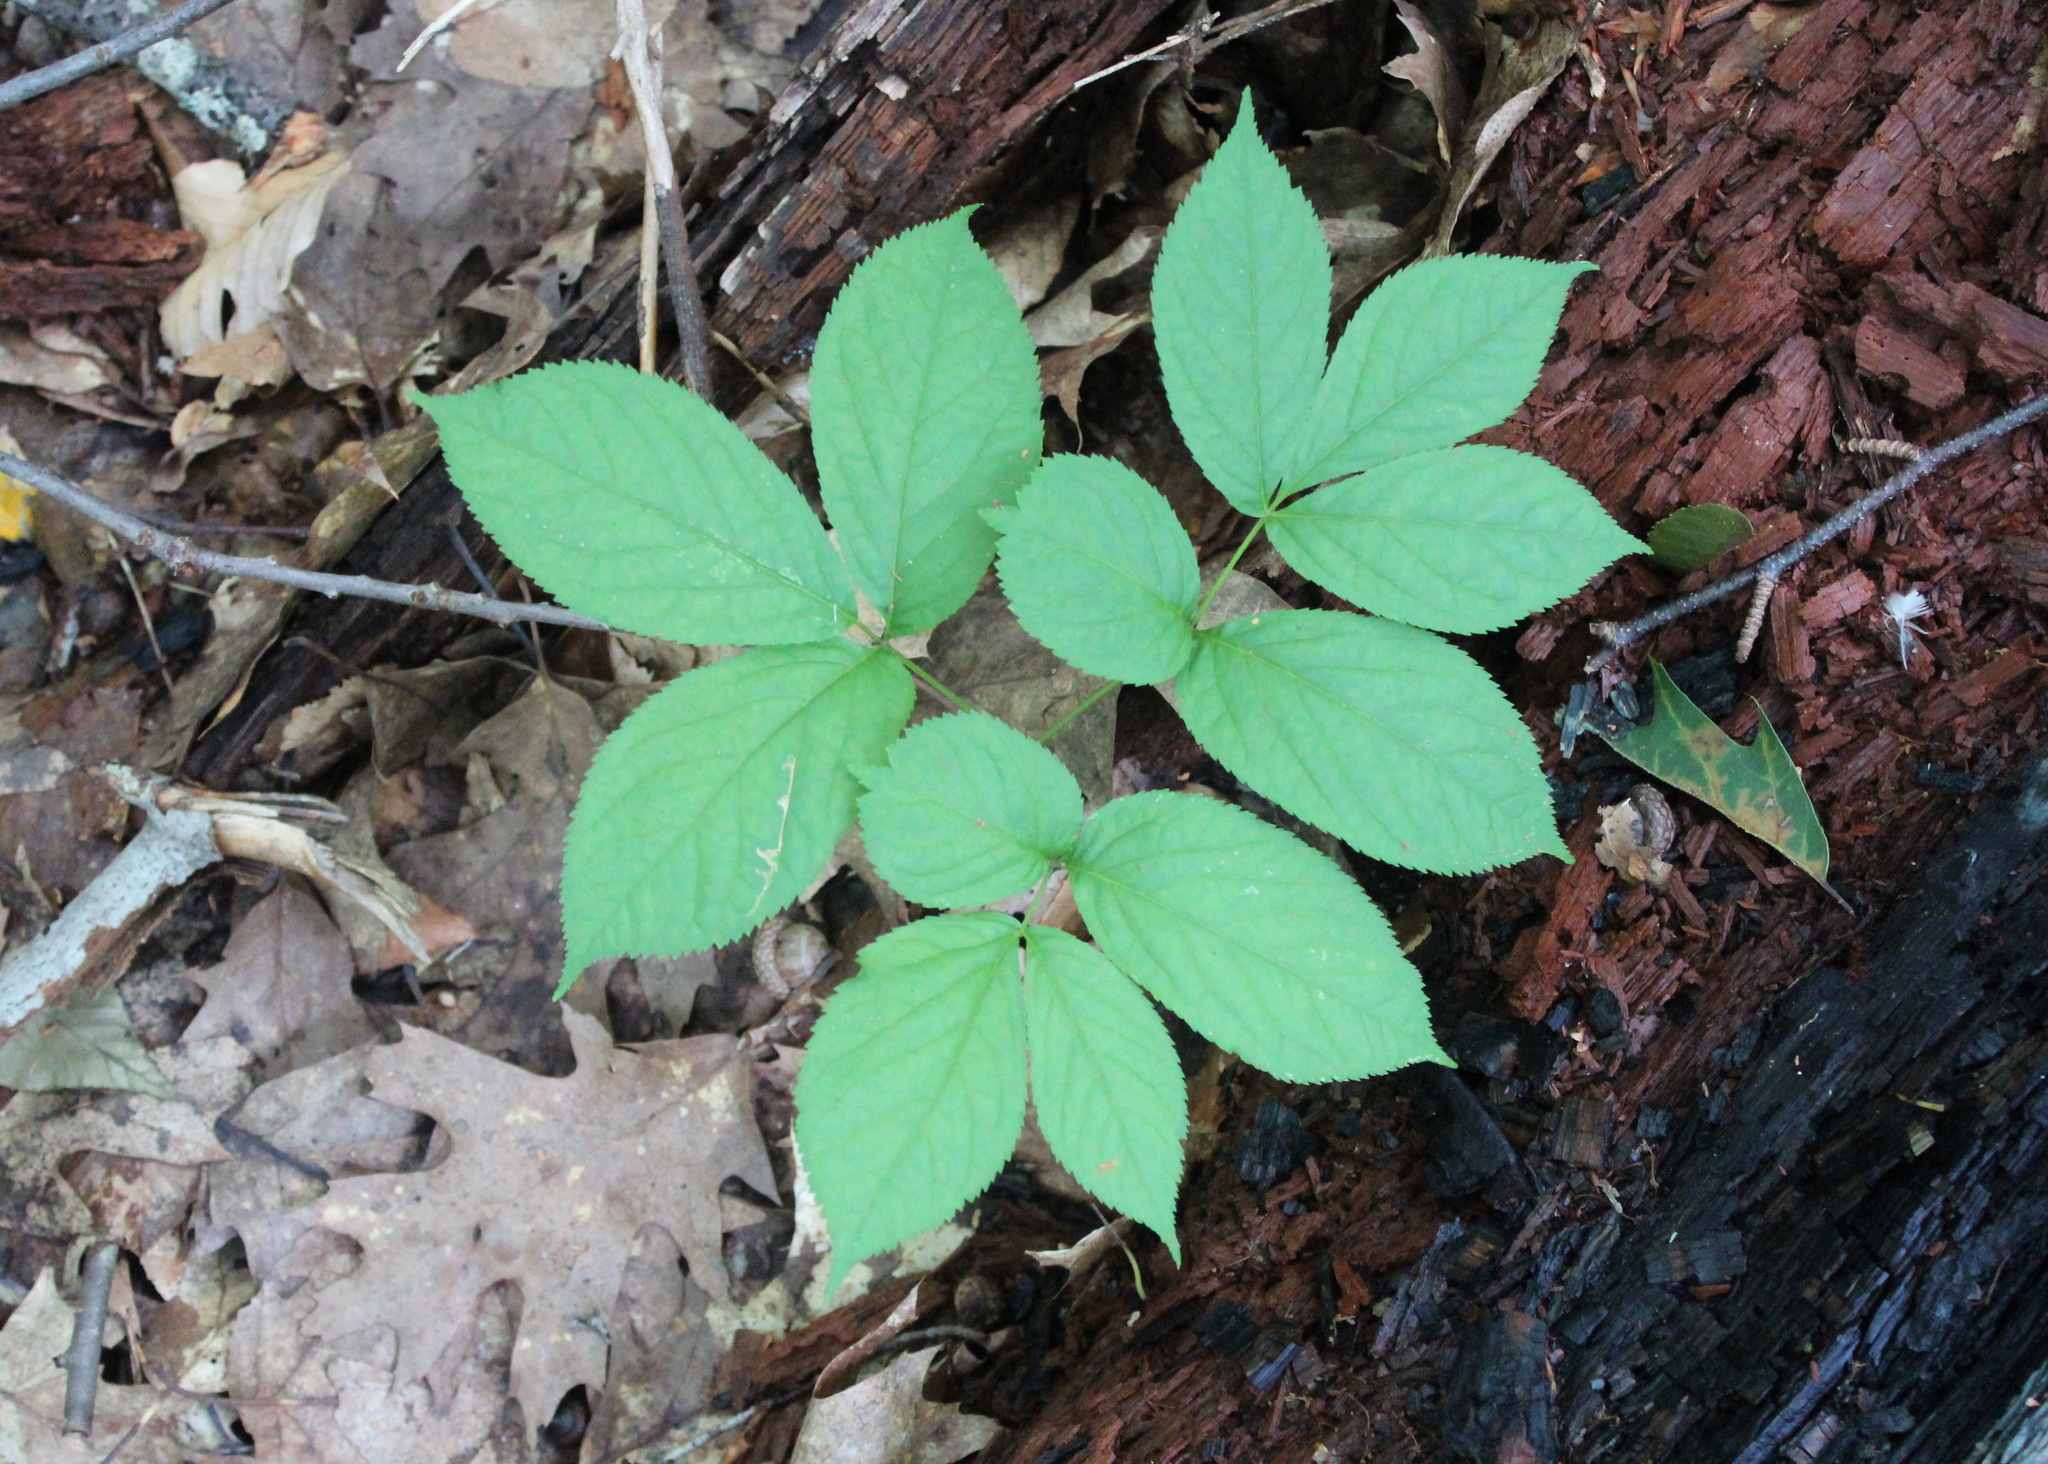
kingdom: Plantae
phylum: Tracheophyta
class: Magnoliopsida
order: Apiales
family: Araliaceae
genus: Aralia
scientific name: Aralia nudicaulis
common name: Wild sarsaparilla
